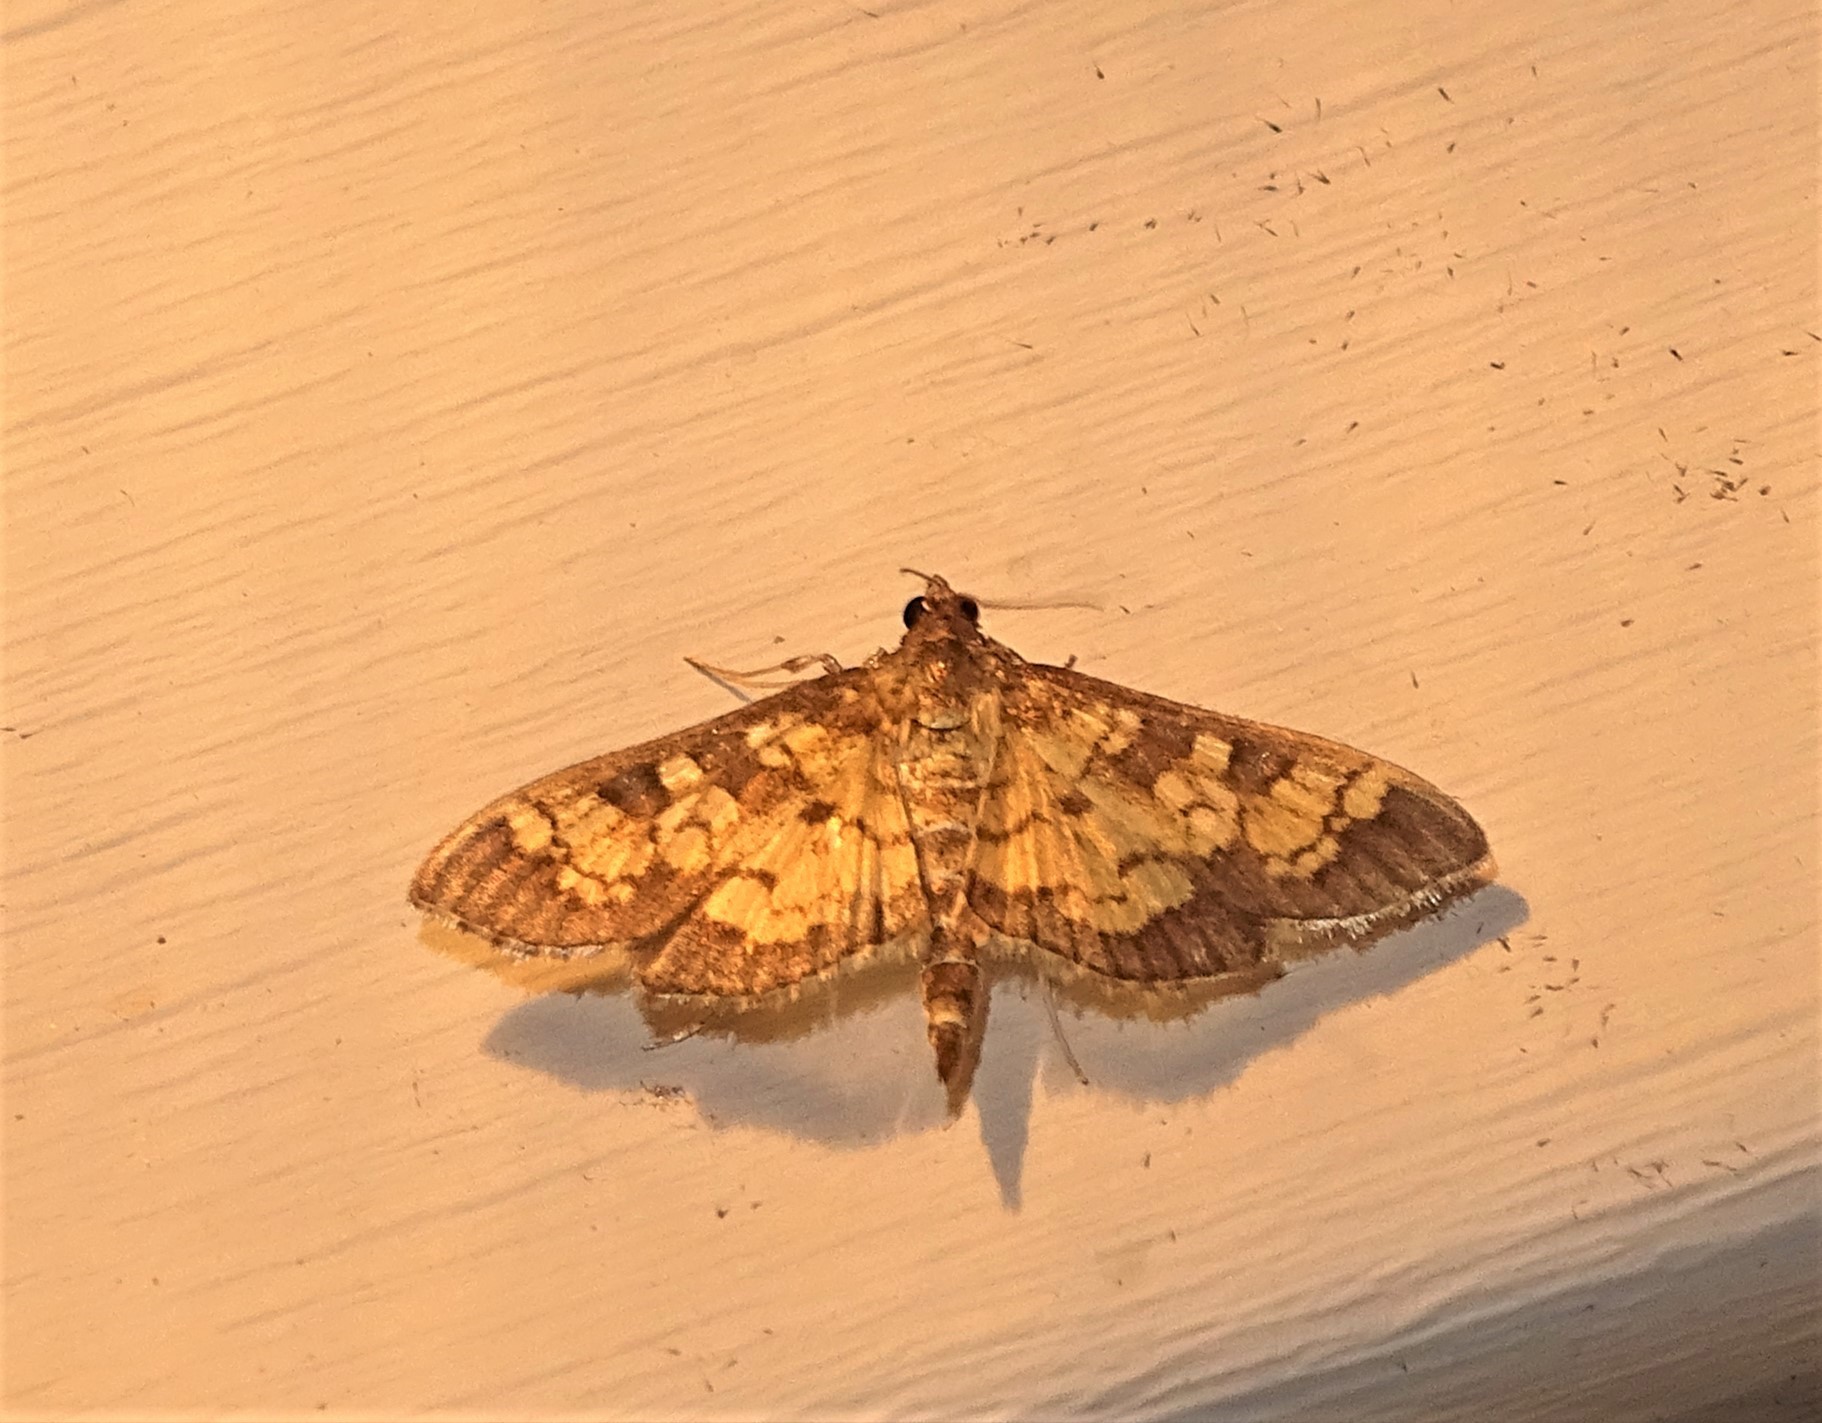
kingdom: Animalia
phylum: Arthropoda
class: Insecta
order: Lepidoptera
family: Crambidae
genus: Epipagis
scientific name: Epipagis adipaloides
